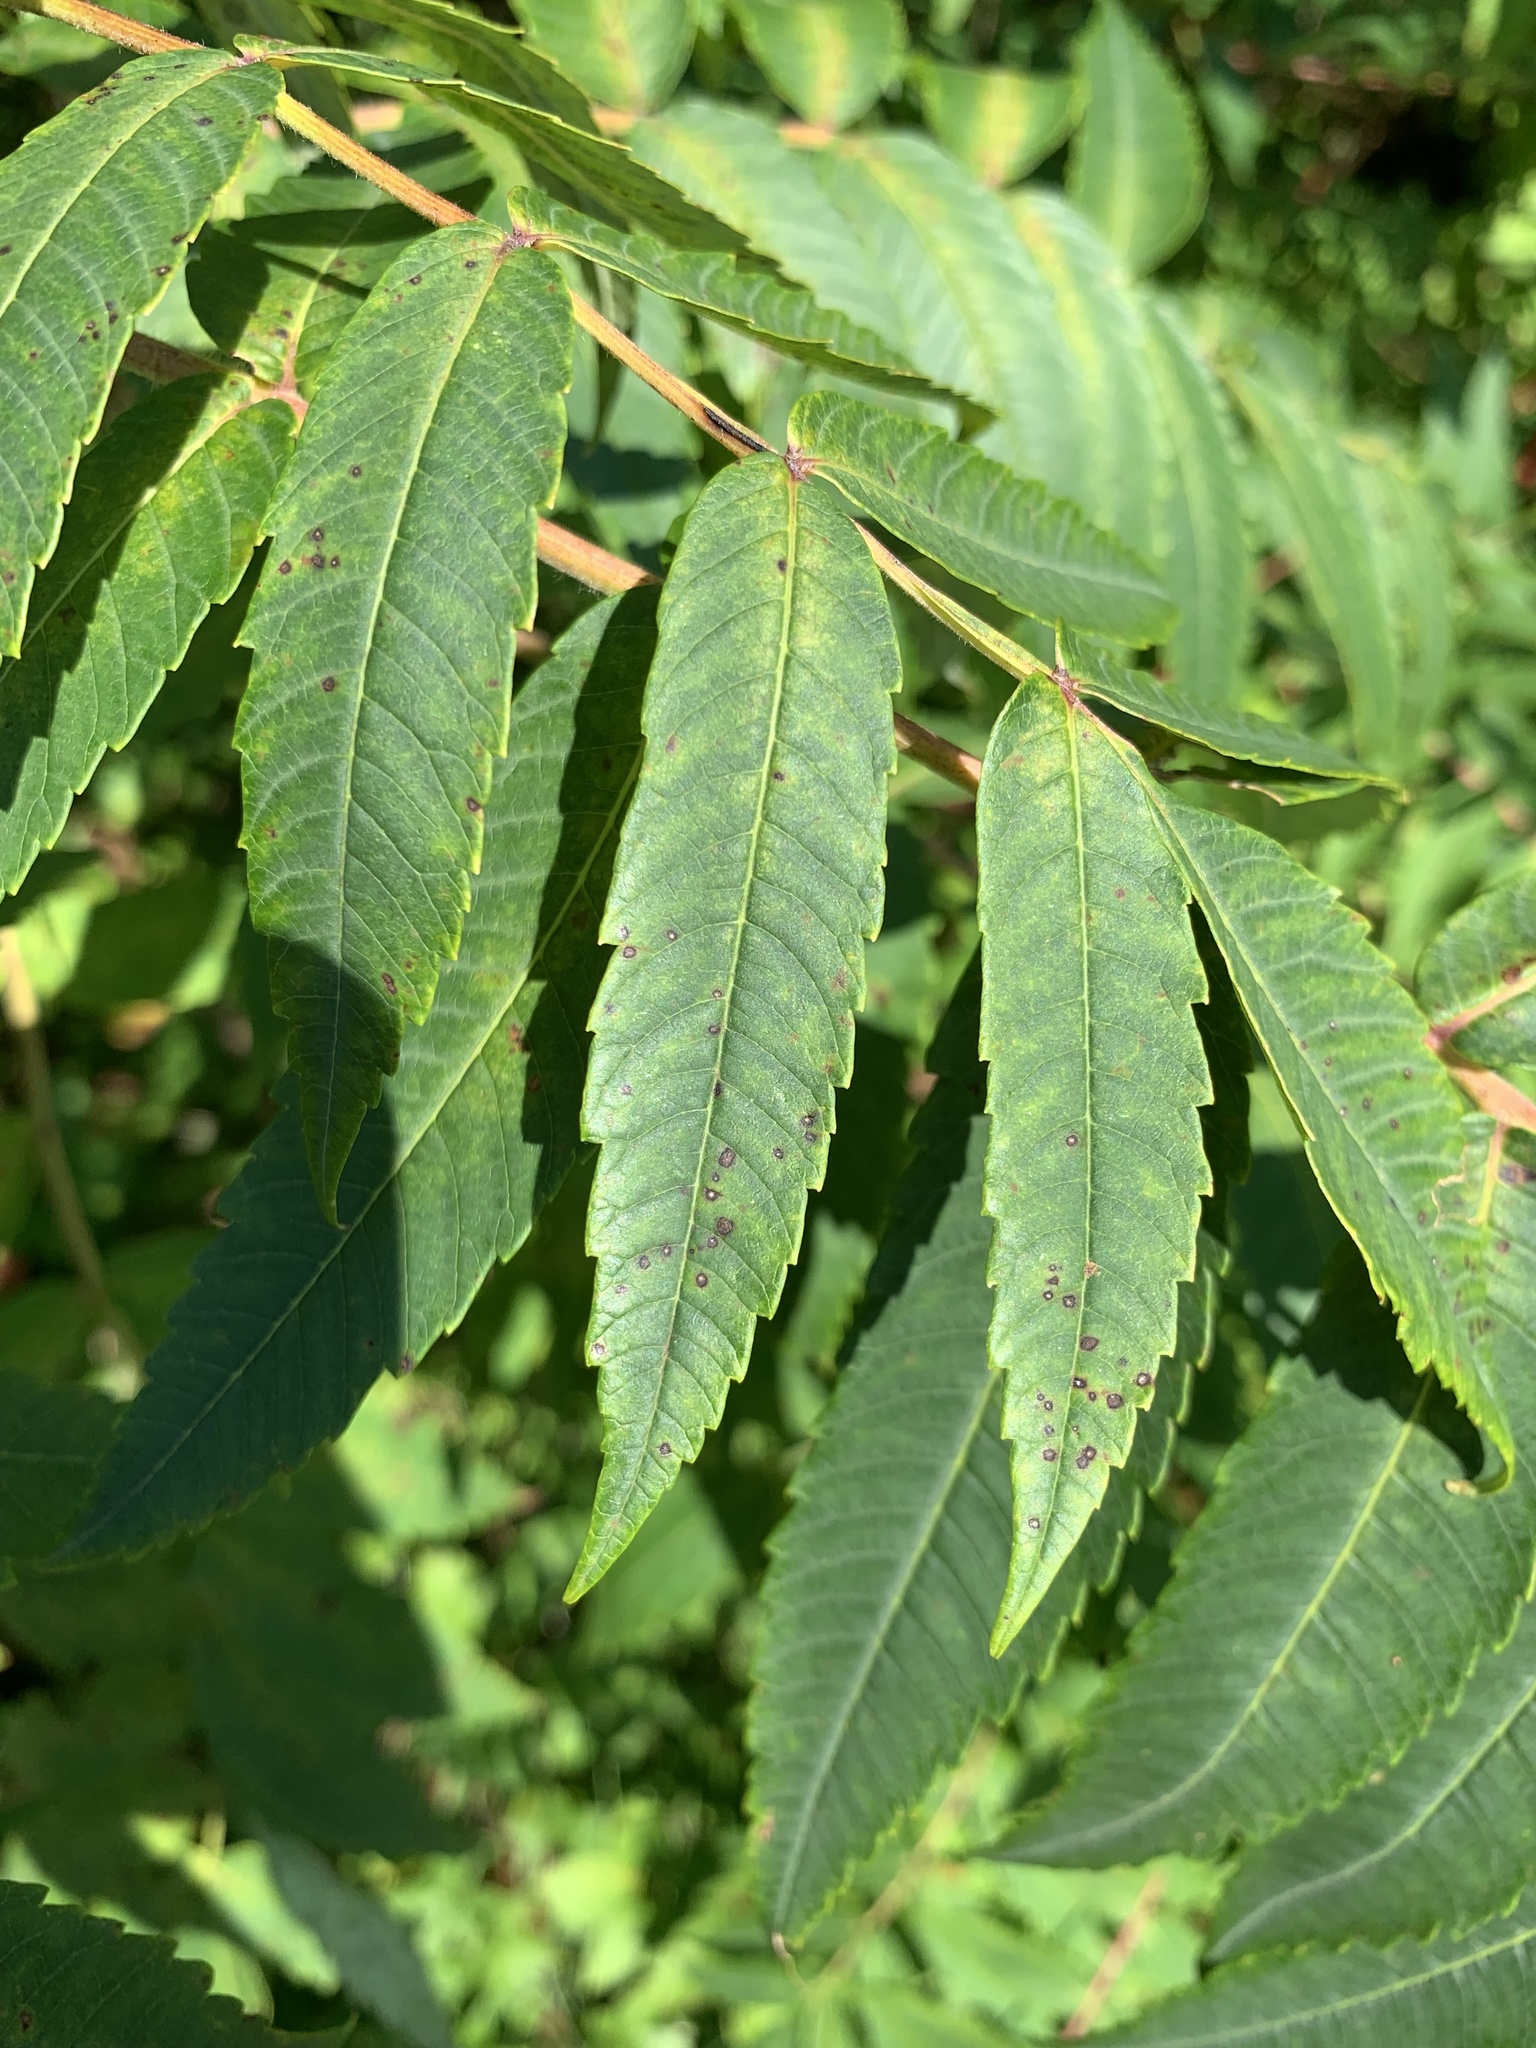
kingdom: Plantae
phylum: Tracheophyta
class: Magnoliopsida
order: Sapindales
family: Anacardiaceae
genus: Rhus
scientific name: Rhus typhina
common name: Staghorn sumac
